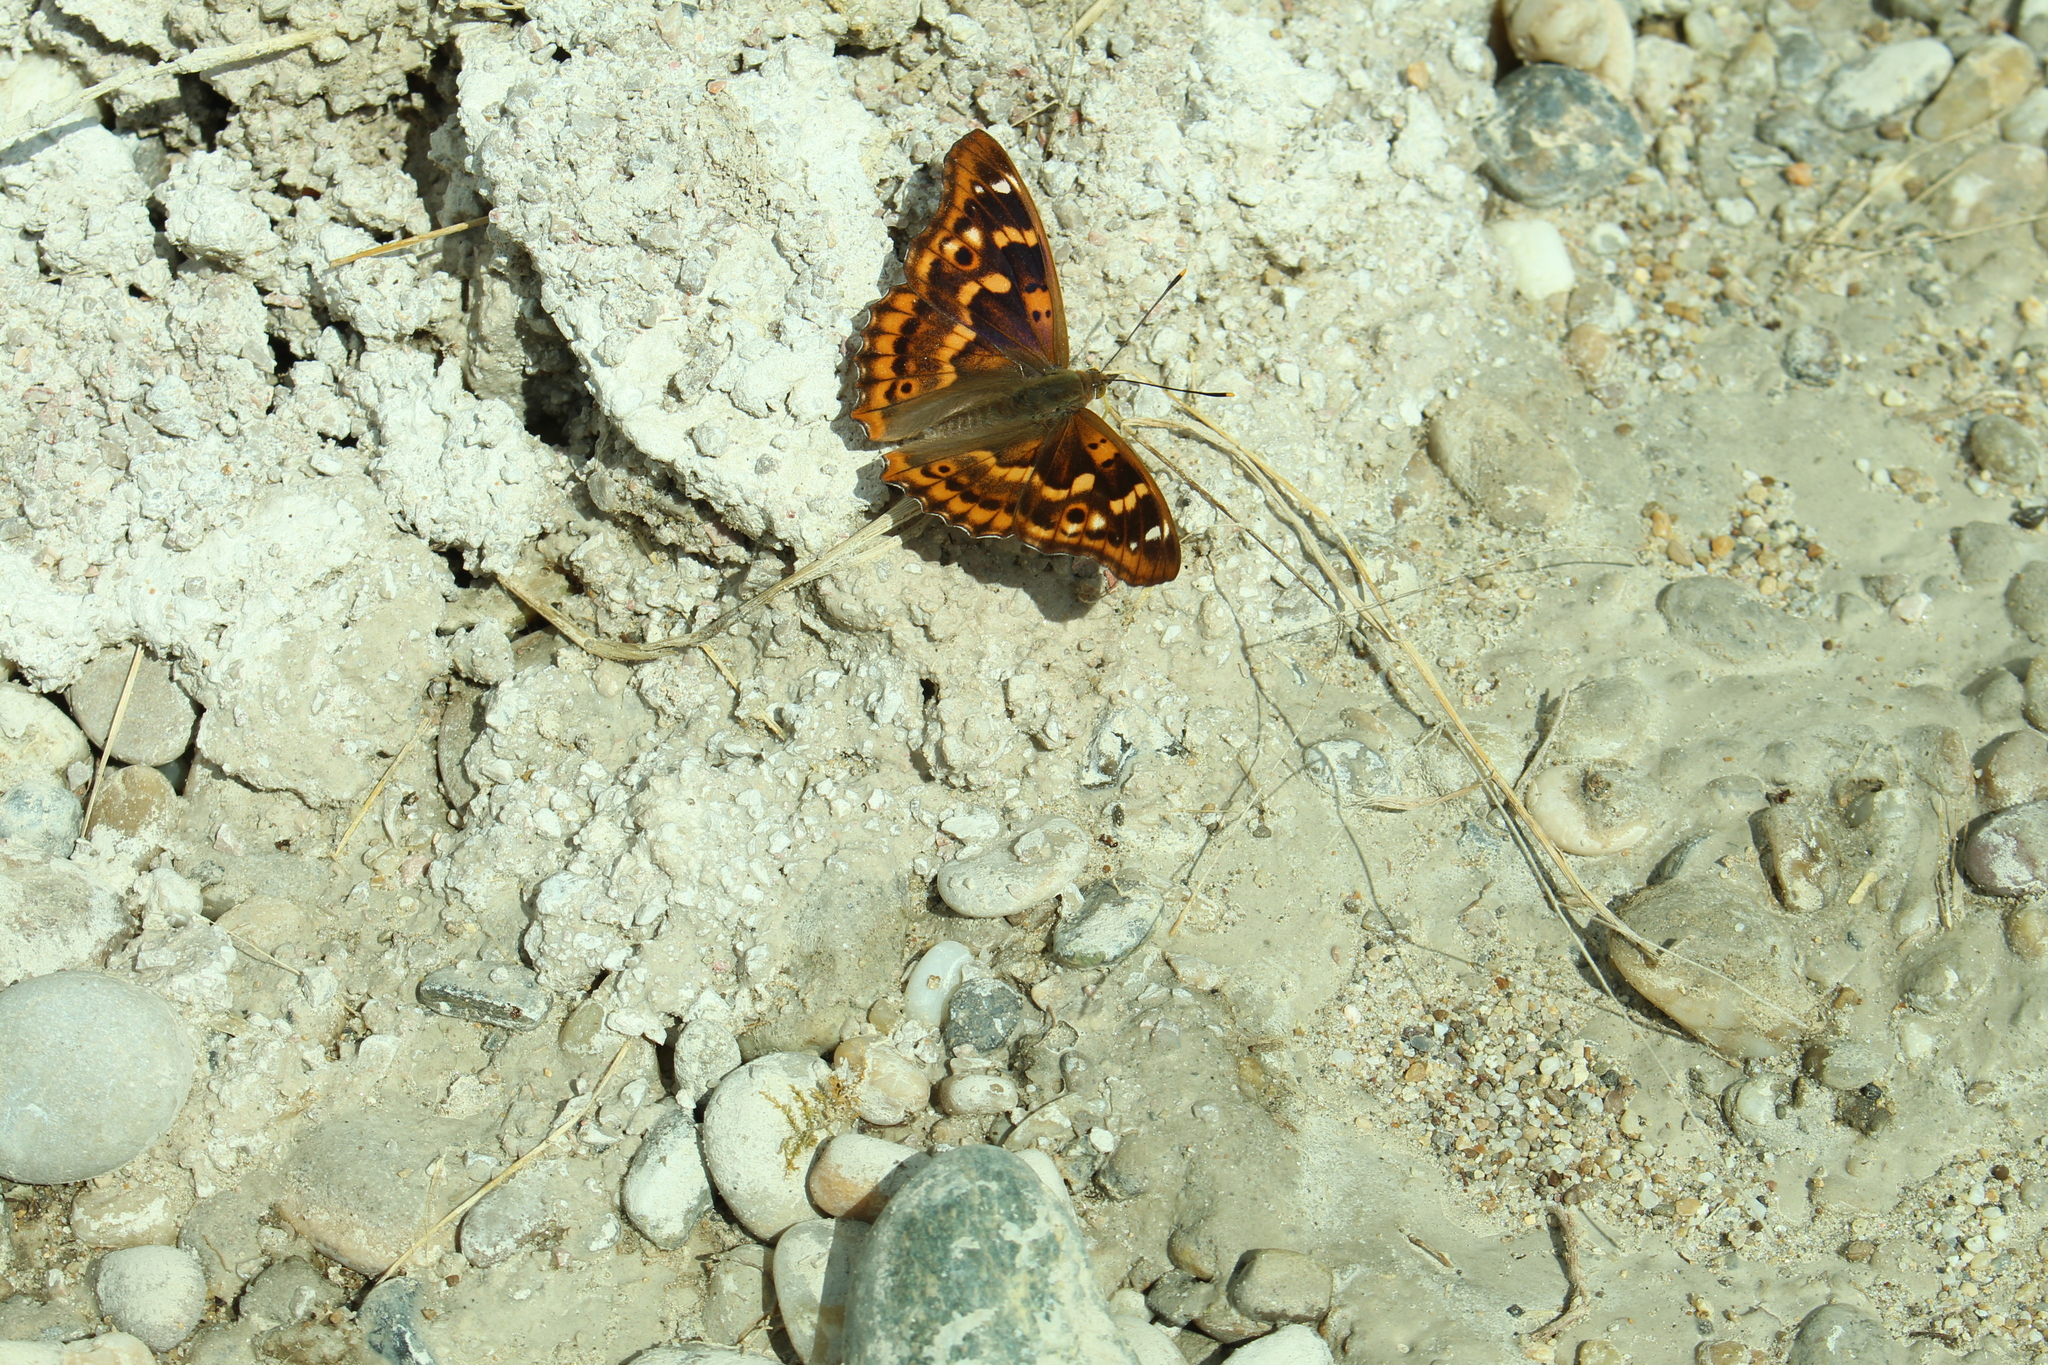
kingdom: Animalia
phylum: Arthropoda
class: Insecta
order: Lepidoptera
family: Nymphalidae
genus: Apatura
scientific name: Apatura ilia
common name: Lesser purple emperor
